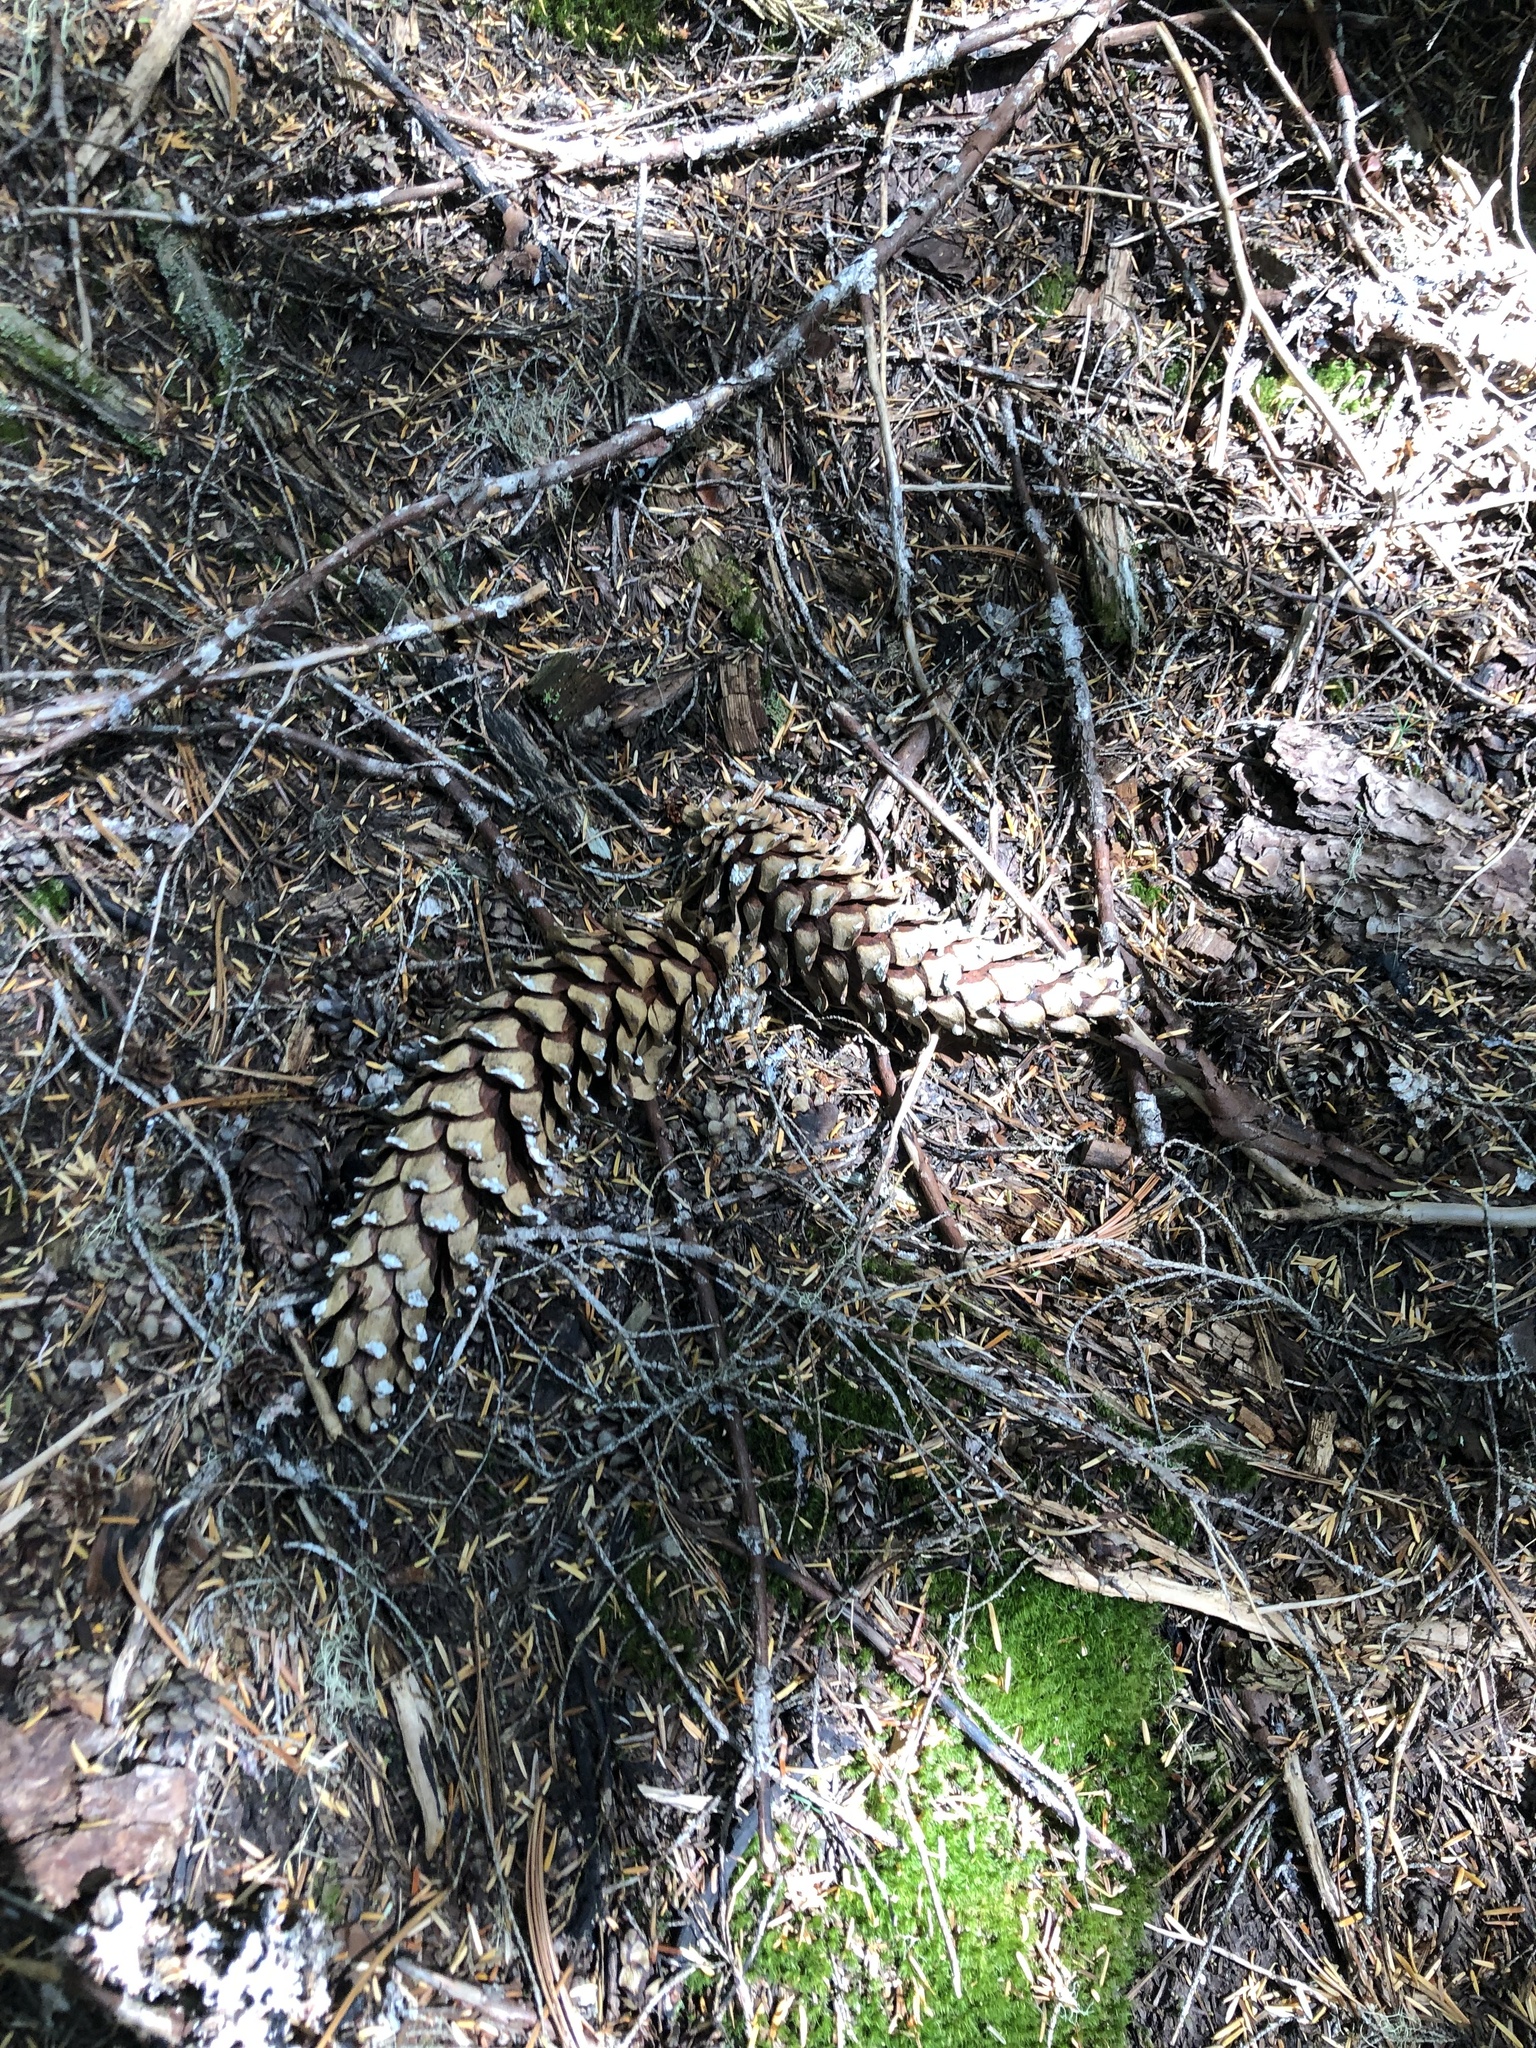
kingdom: Plantae
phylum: Tracheophyta
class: Pinopsida
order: Pinales
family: Pinaceae
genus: Pinus
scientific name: Pinus monticola
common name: Western white pine
